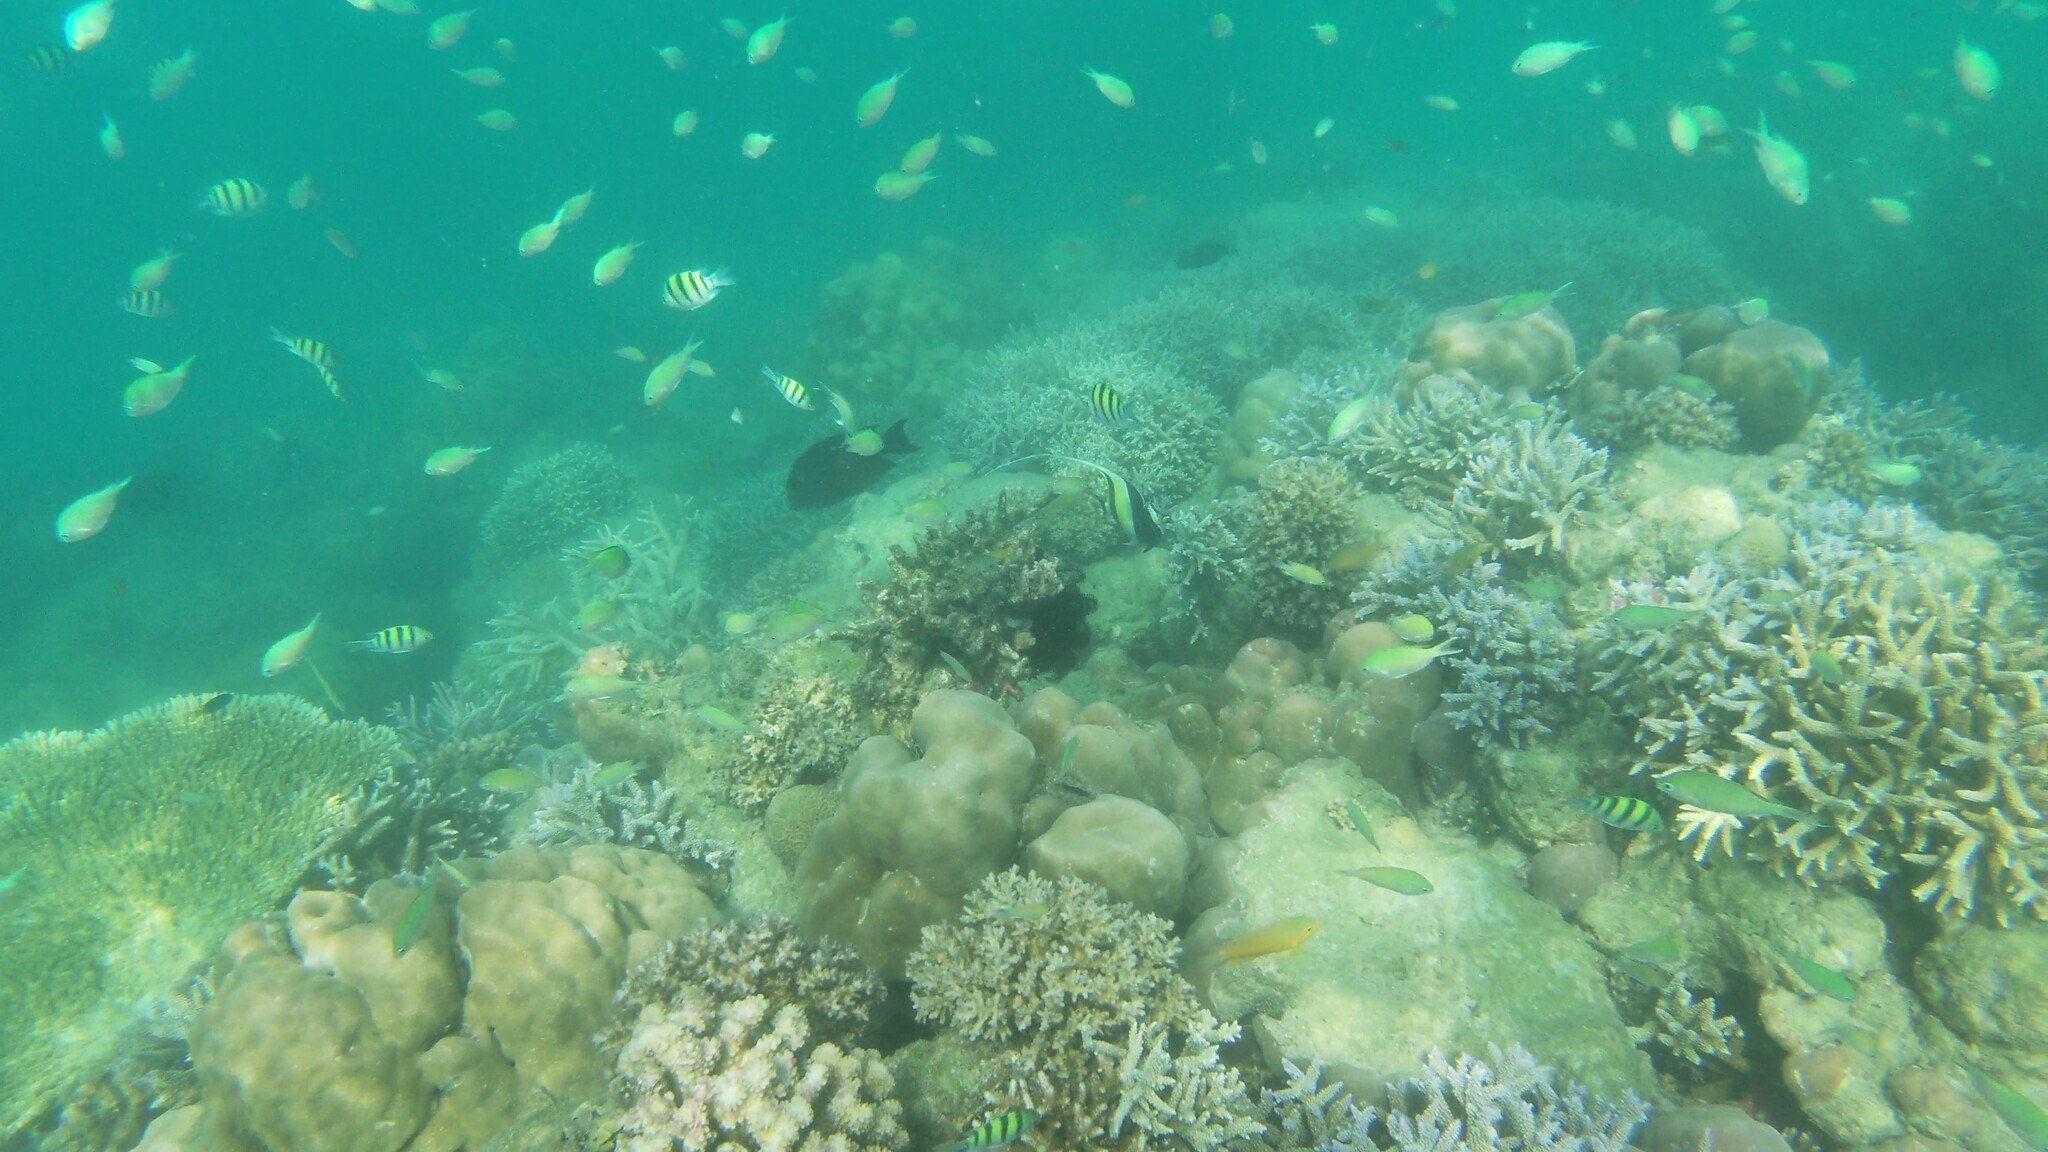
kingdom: Animalia
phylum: Chordata
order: Perciformes
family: Zanclidae
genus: Zanclus
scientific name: Zanclus cornutus
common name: Moorish idol
